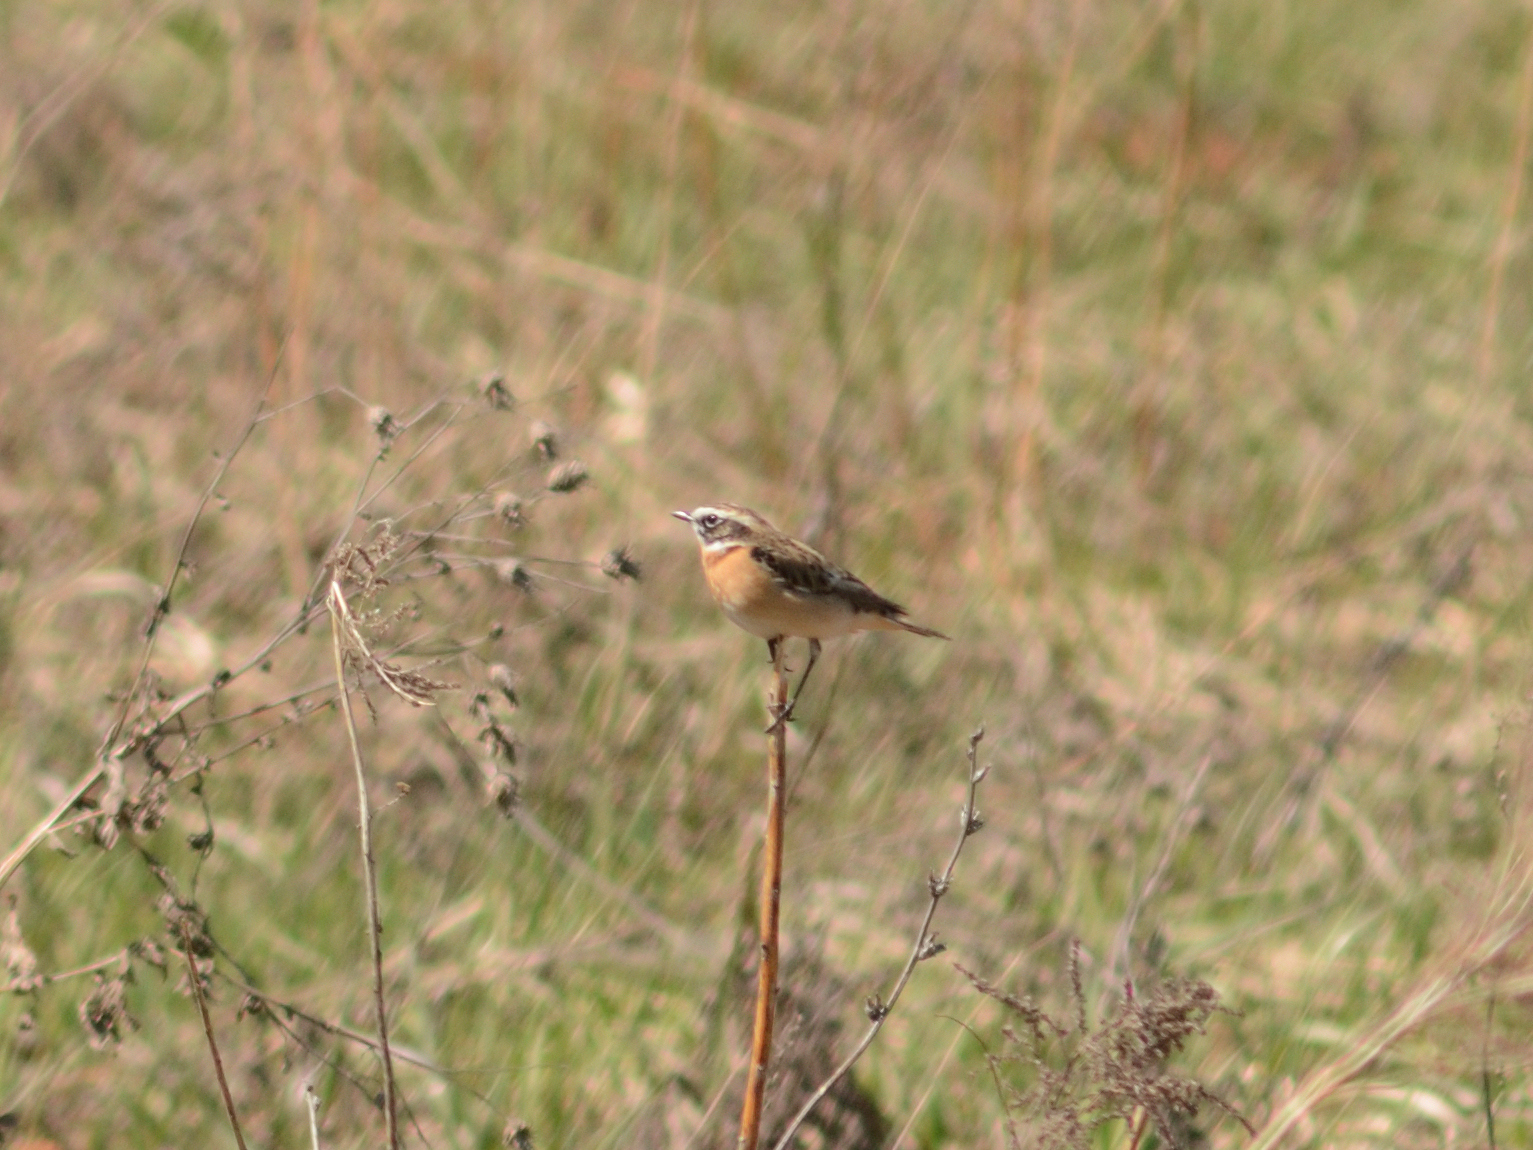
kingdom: Animalia
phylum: Chordata
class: Aves
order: Passeriformes
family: Muscicapidae
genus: Saxicola
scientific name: Saxicola rubetra
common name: Whinchat
